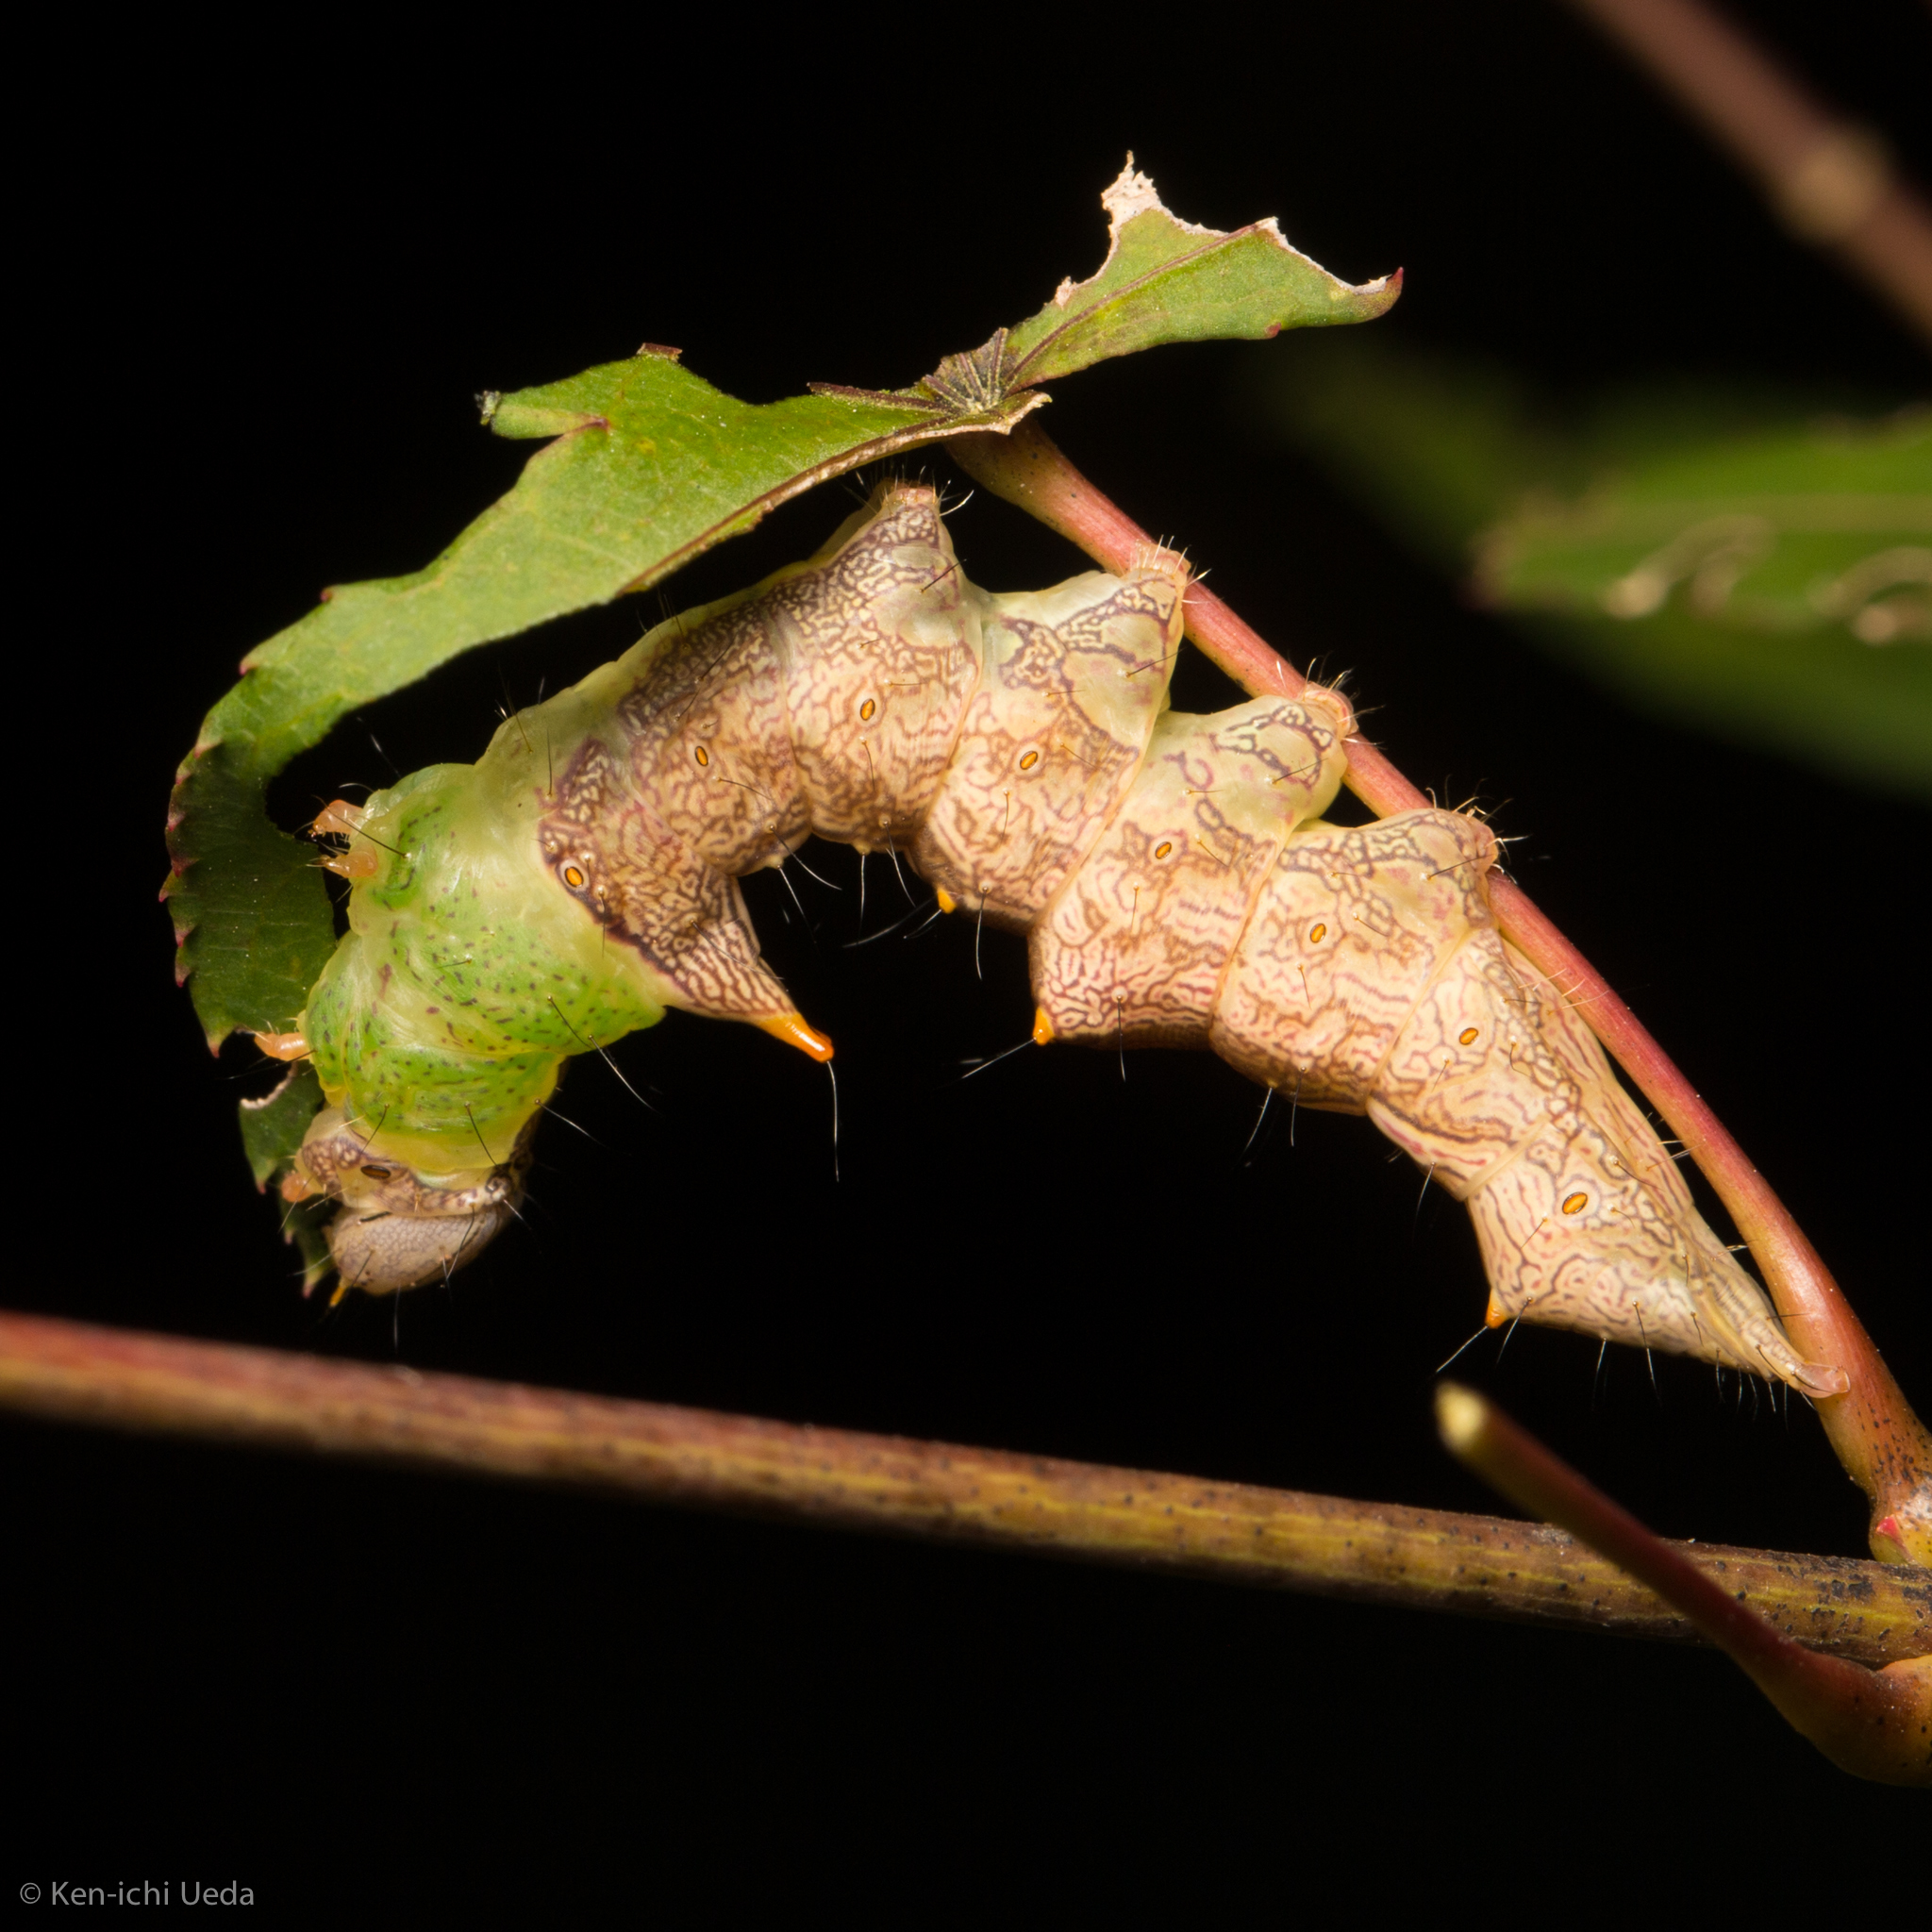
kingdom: Animalia
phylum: Arthropoda
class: Insecta
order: Lepidoptera
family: Notodontidae
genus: Schizura
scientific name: Schizura ipomaeae
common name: Morning-glory prominent
